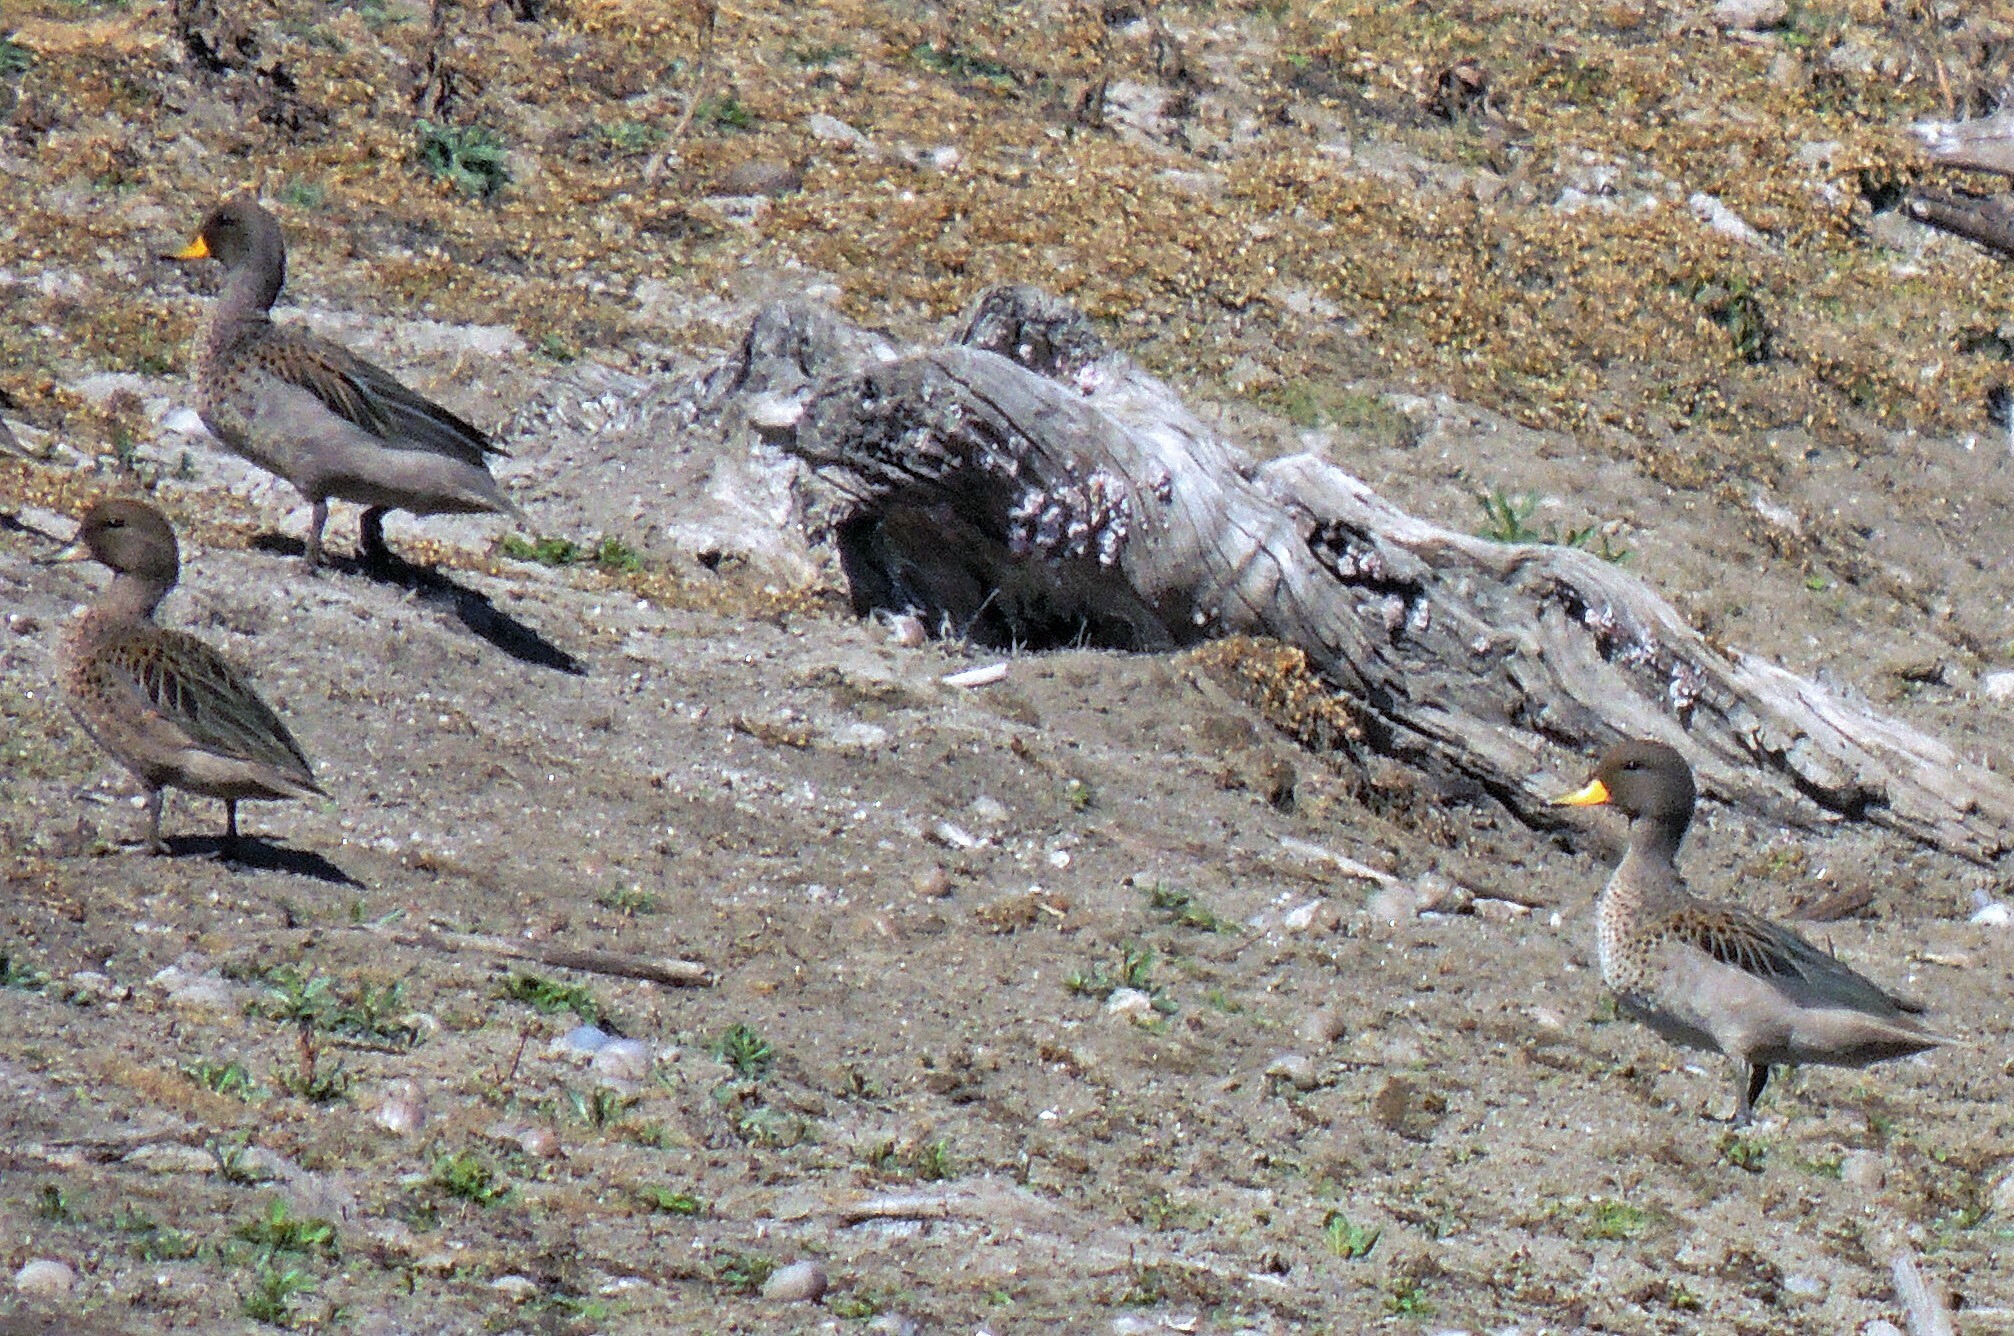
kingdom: Animalia
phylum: Chordata
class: Aves
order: Anseriformes
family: Anatidae
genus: Anas
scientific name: Anas flavirostris
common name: Yellow-billed teal
